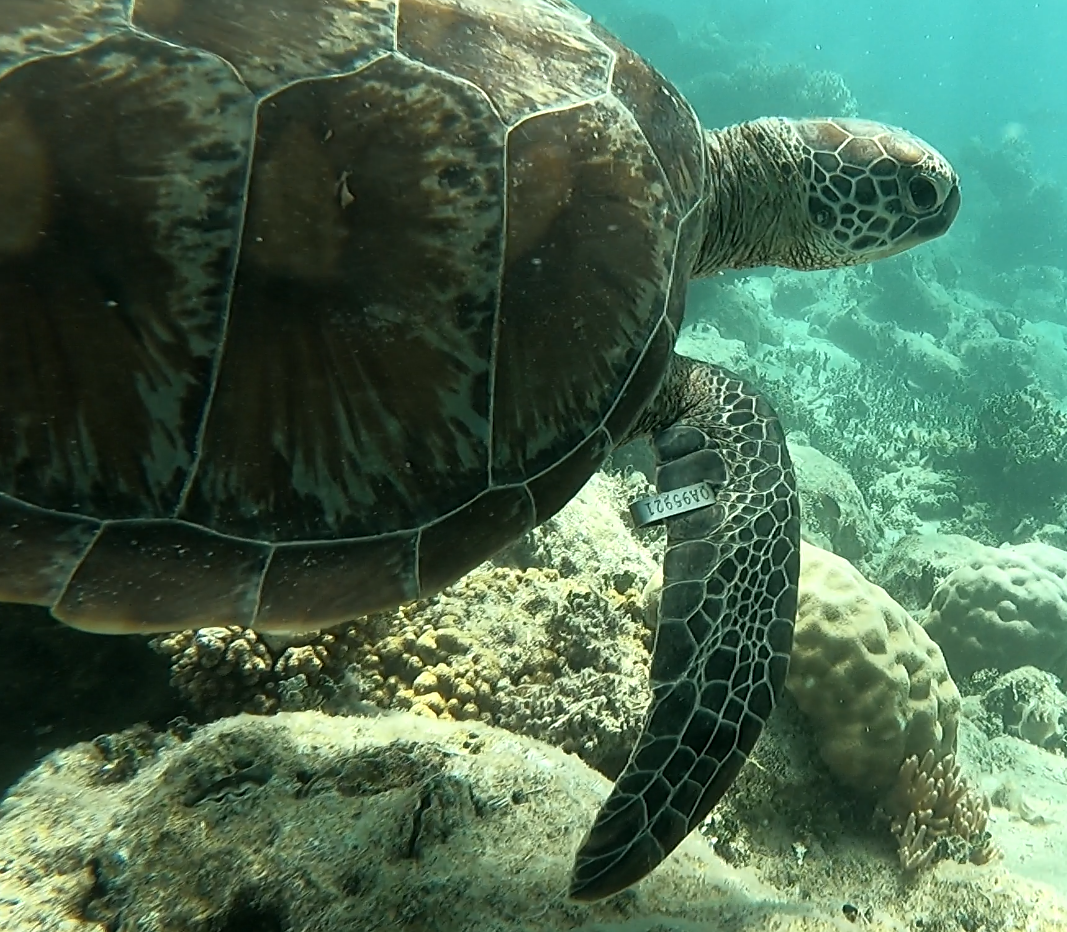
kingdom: Animalia
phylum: Chordata
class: Testudines
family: Cheloniidae
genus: Chelonia
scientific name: Chelonia mydas
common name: Green turtle
